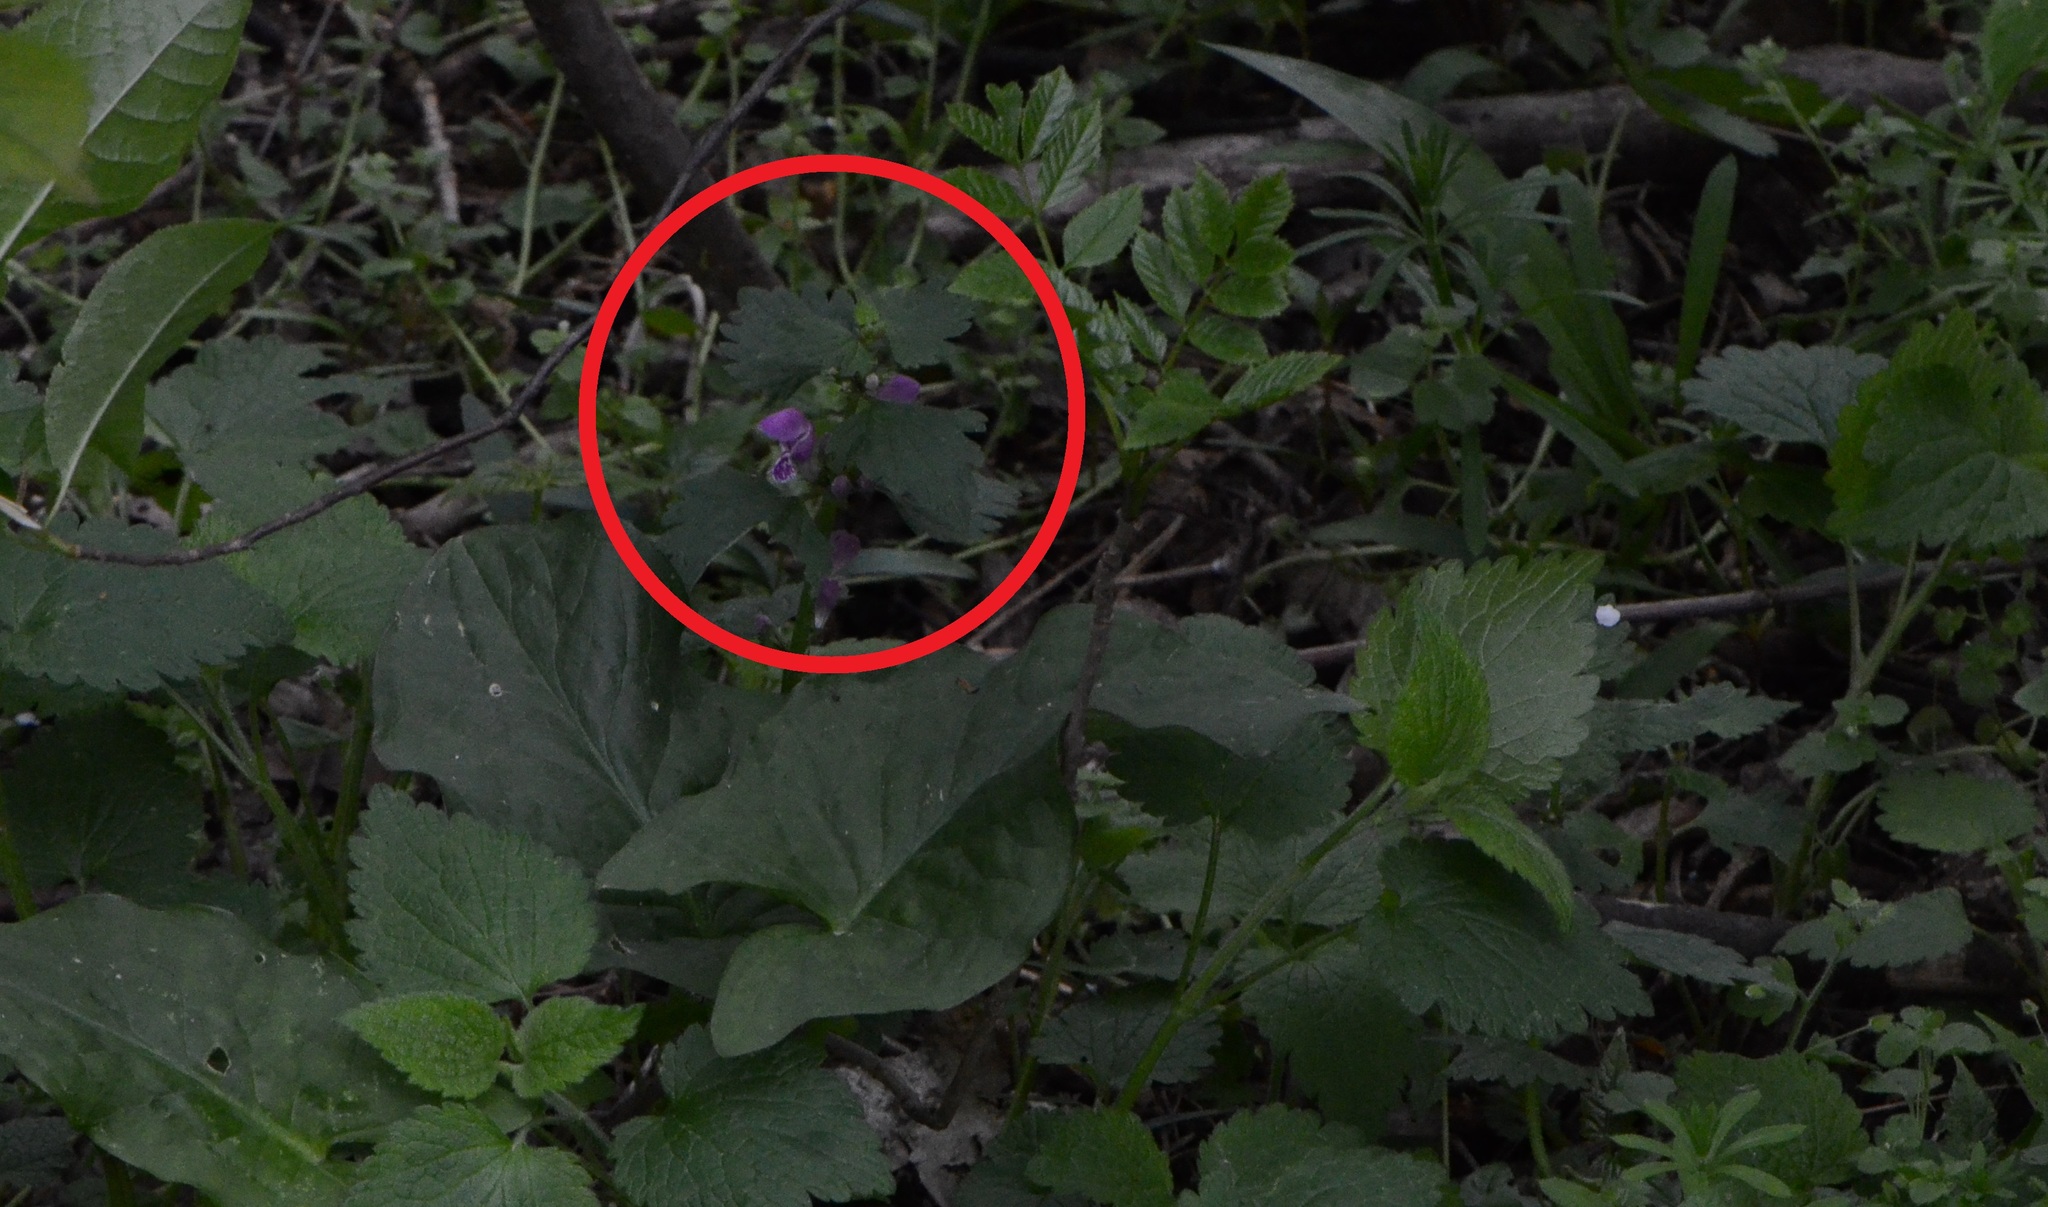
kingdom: Plantae
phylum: Tracheophyta
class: Magnoliopsida
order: Lamiales
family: Lamiaceae
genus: Lamium
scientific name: Lamium maculatum
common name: Spotted dead-nettle
